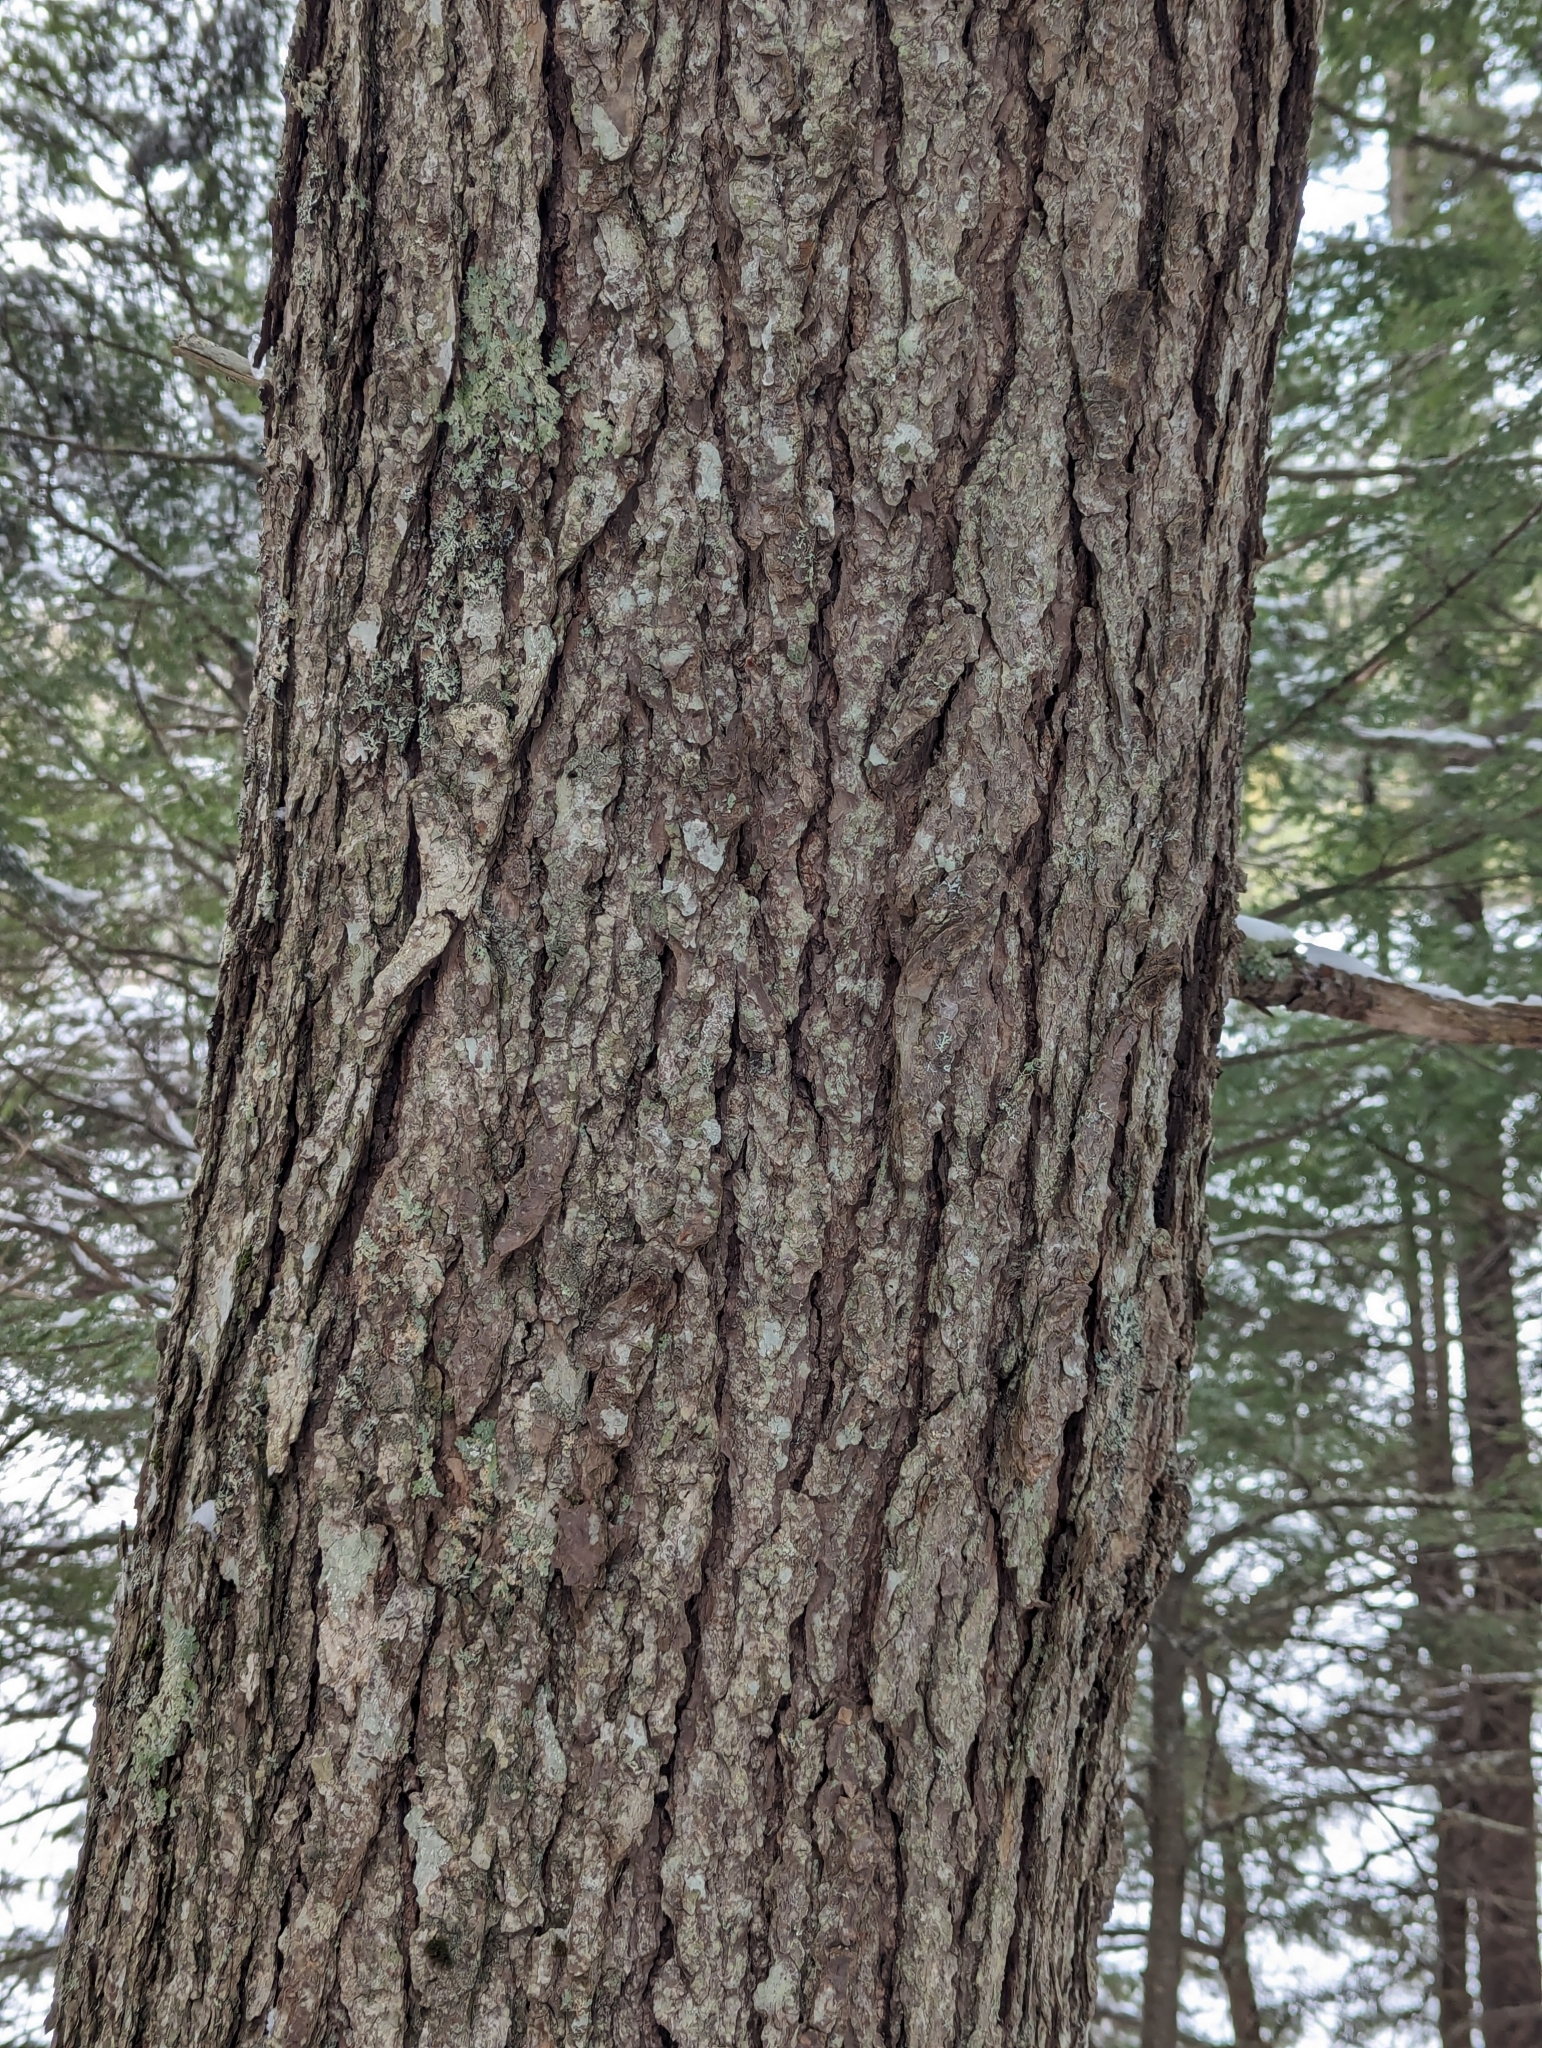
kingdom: Plantae
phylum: Tracheophyta
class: Pinopsida
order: Pinales
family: Pinaceae
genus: Tsuga
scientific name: Tsuga canadensis
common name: Eastern hemlock
